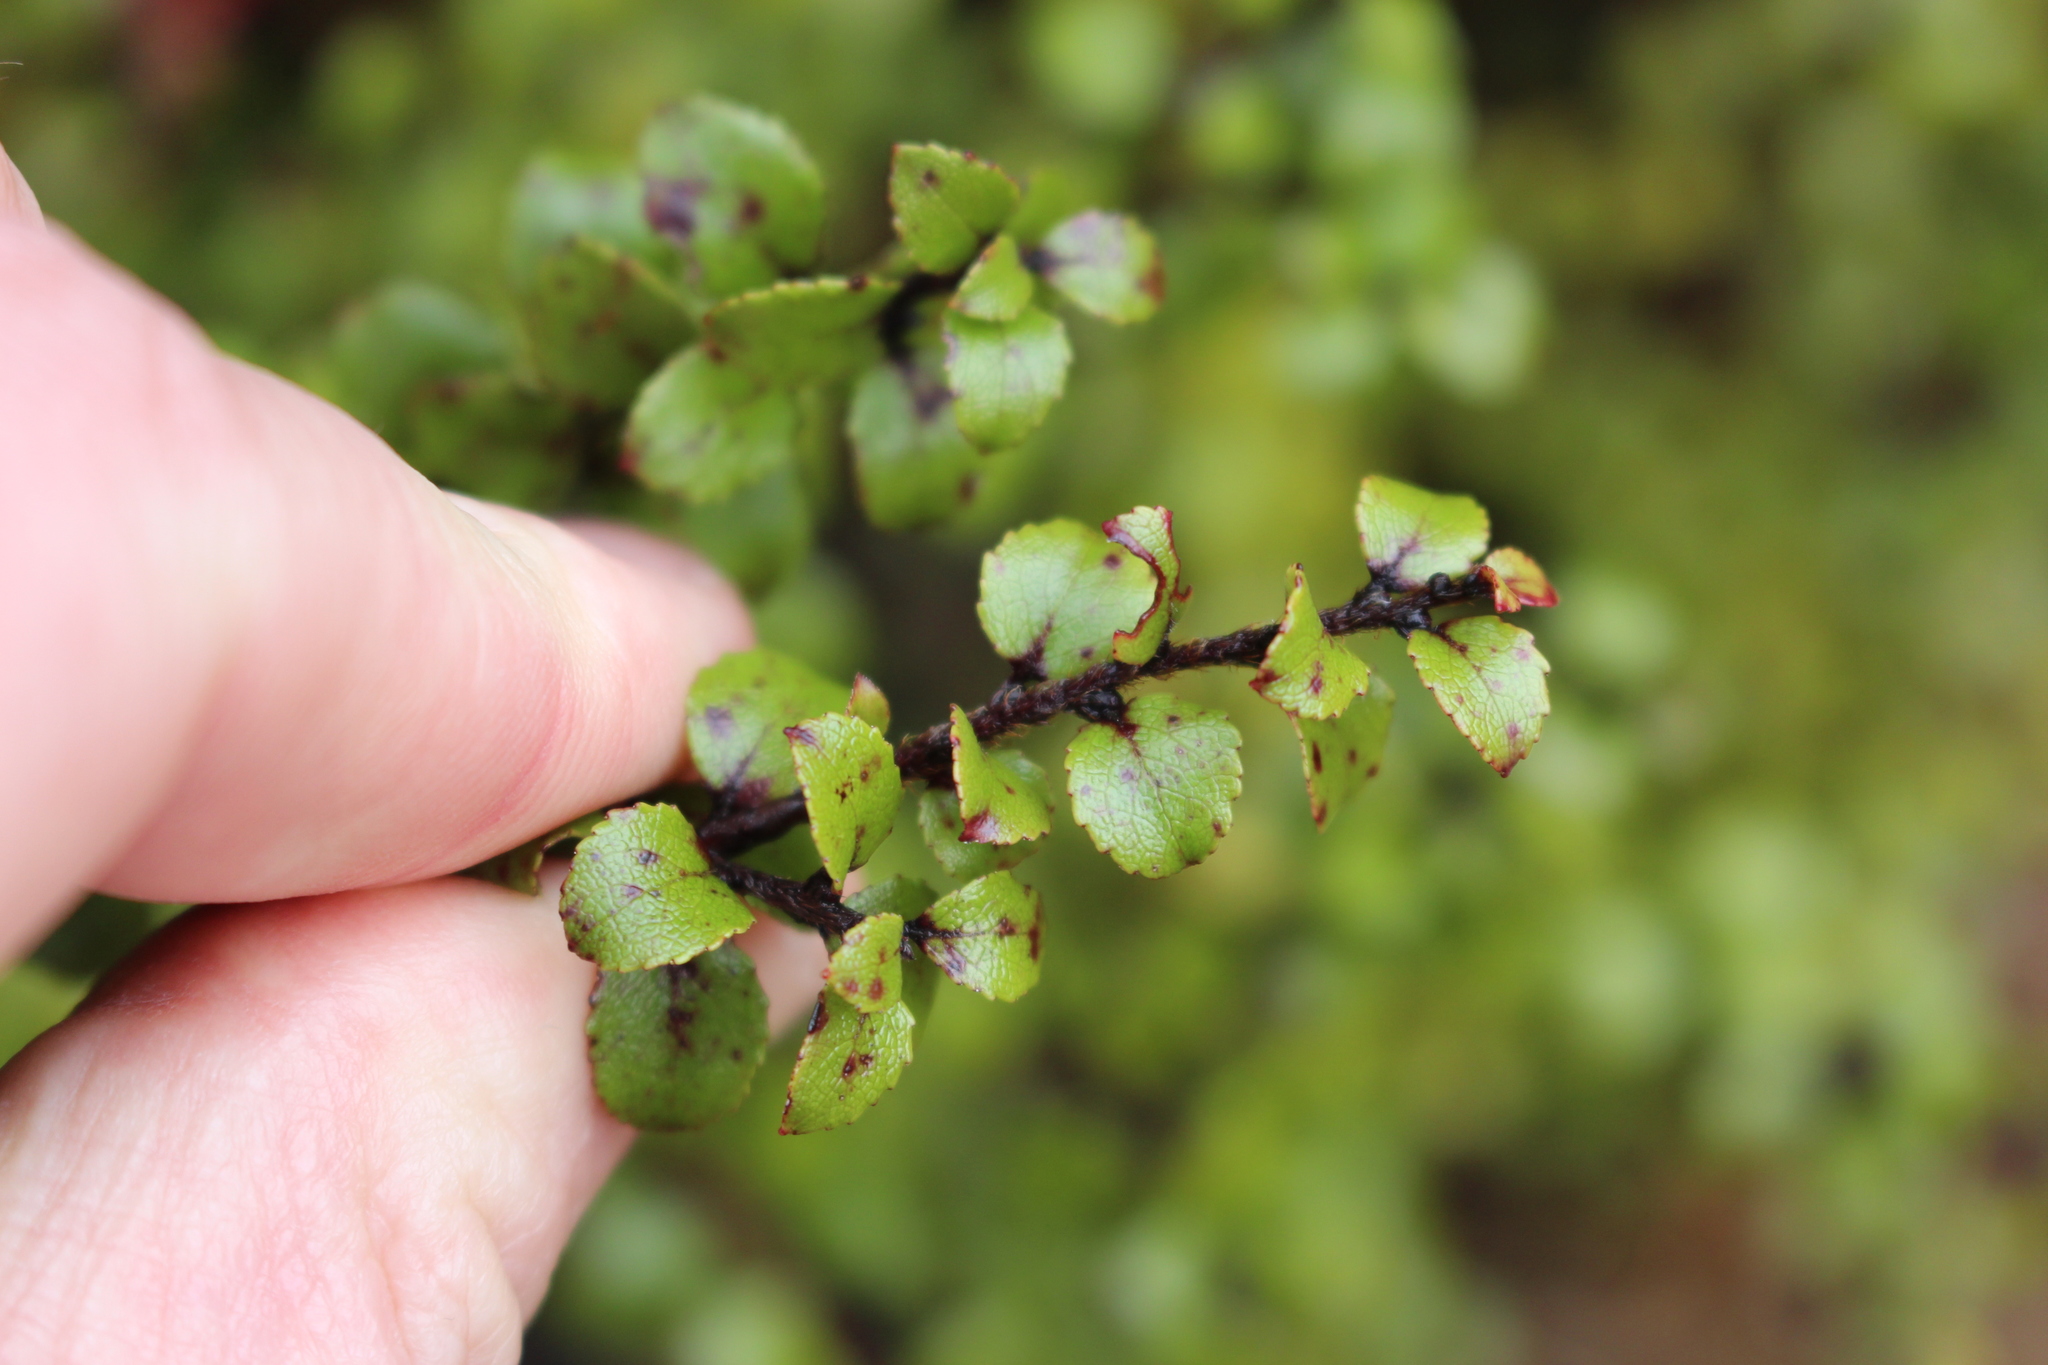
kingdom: Plantae
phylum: Tracheophyta
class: Magnoliopsida
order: Ericales
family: Ericaceae
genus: Gaultheria
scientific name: Gaultheria antipoda
